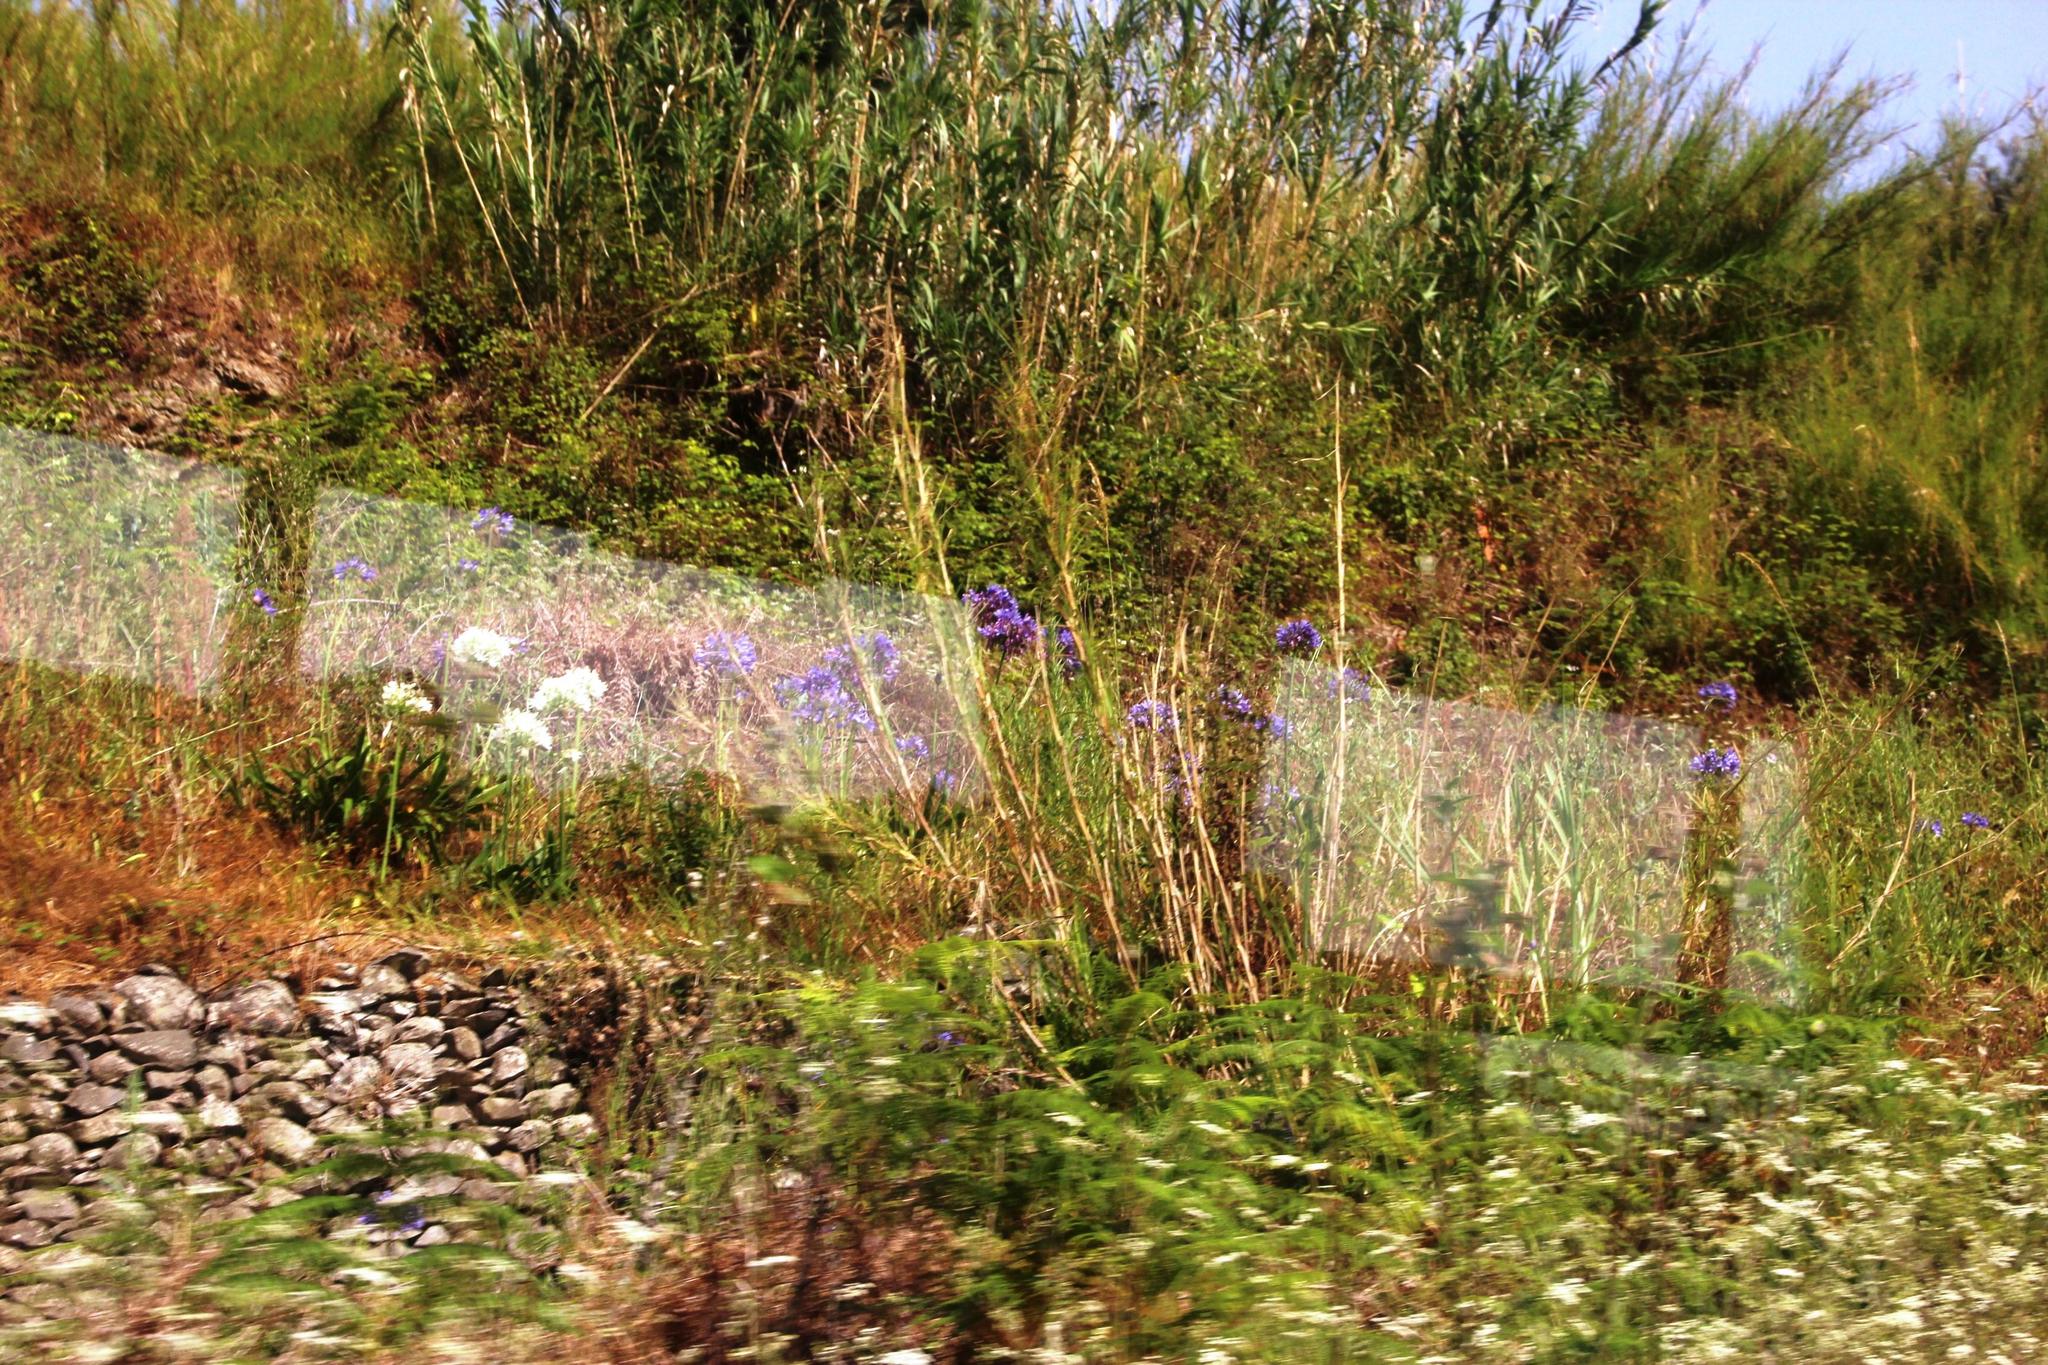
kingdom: Plantae
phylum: Tracheophyta
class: Liliopsida
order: Asparagales
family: Amaryllidaceae
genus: Agapanthus
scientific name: Agapanthus praecox
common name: African-lily
